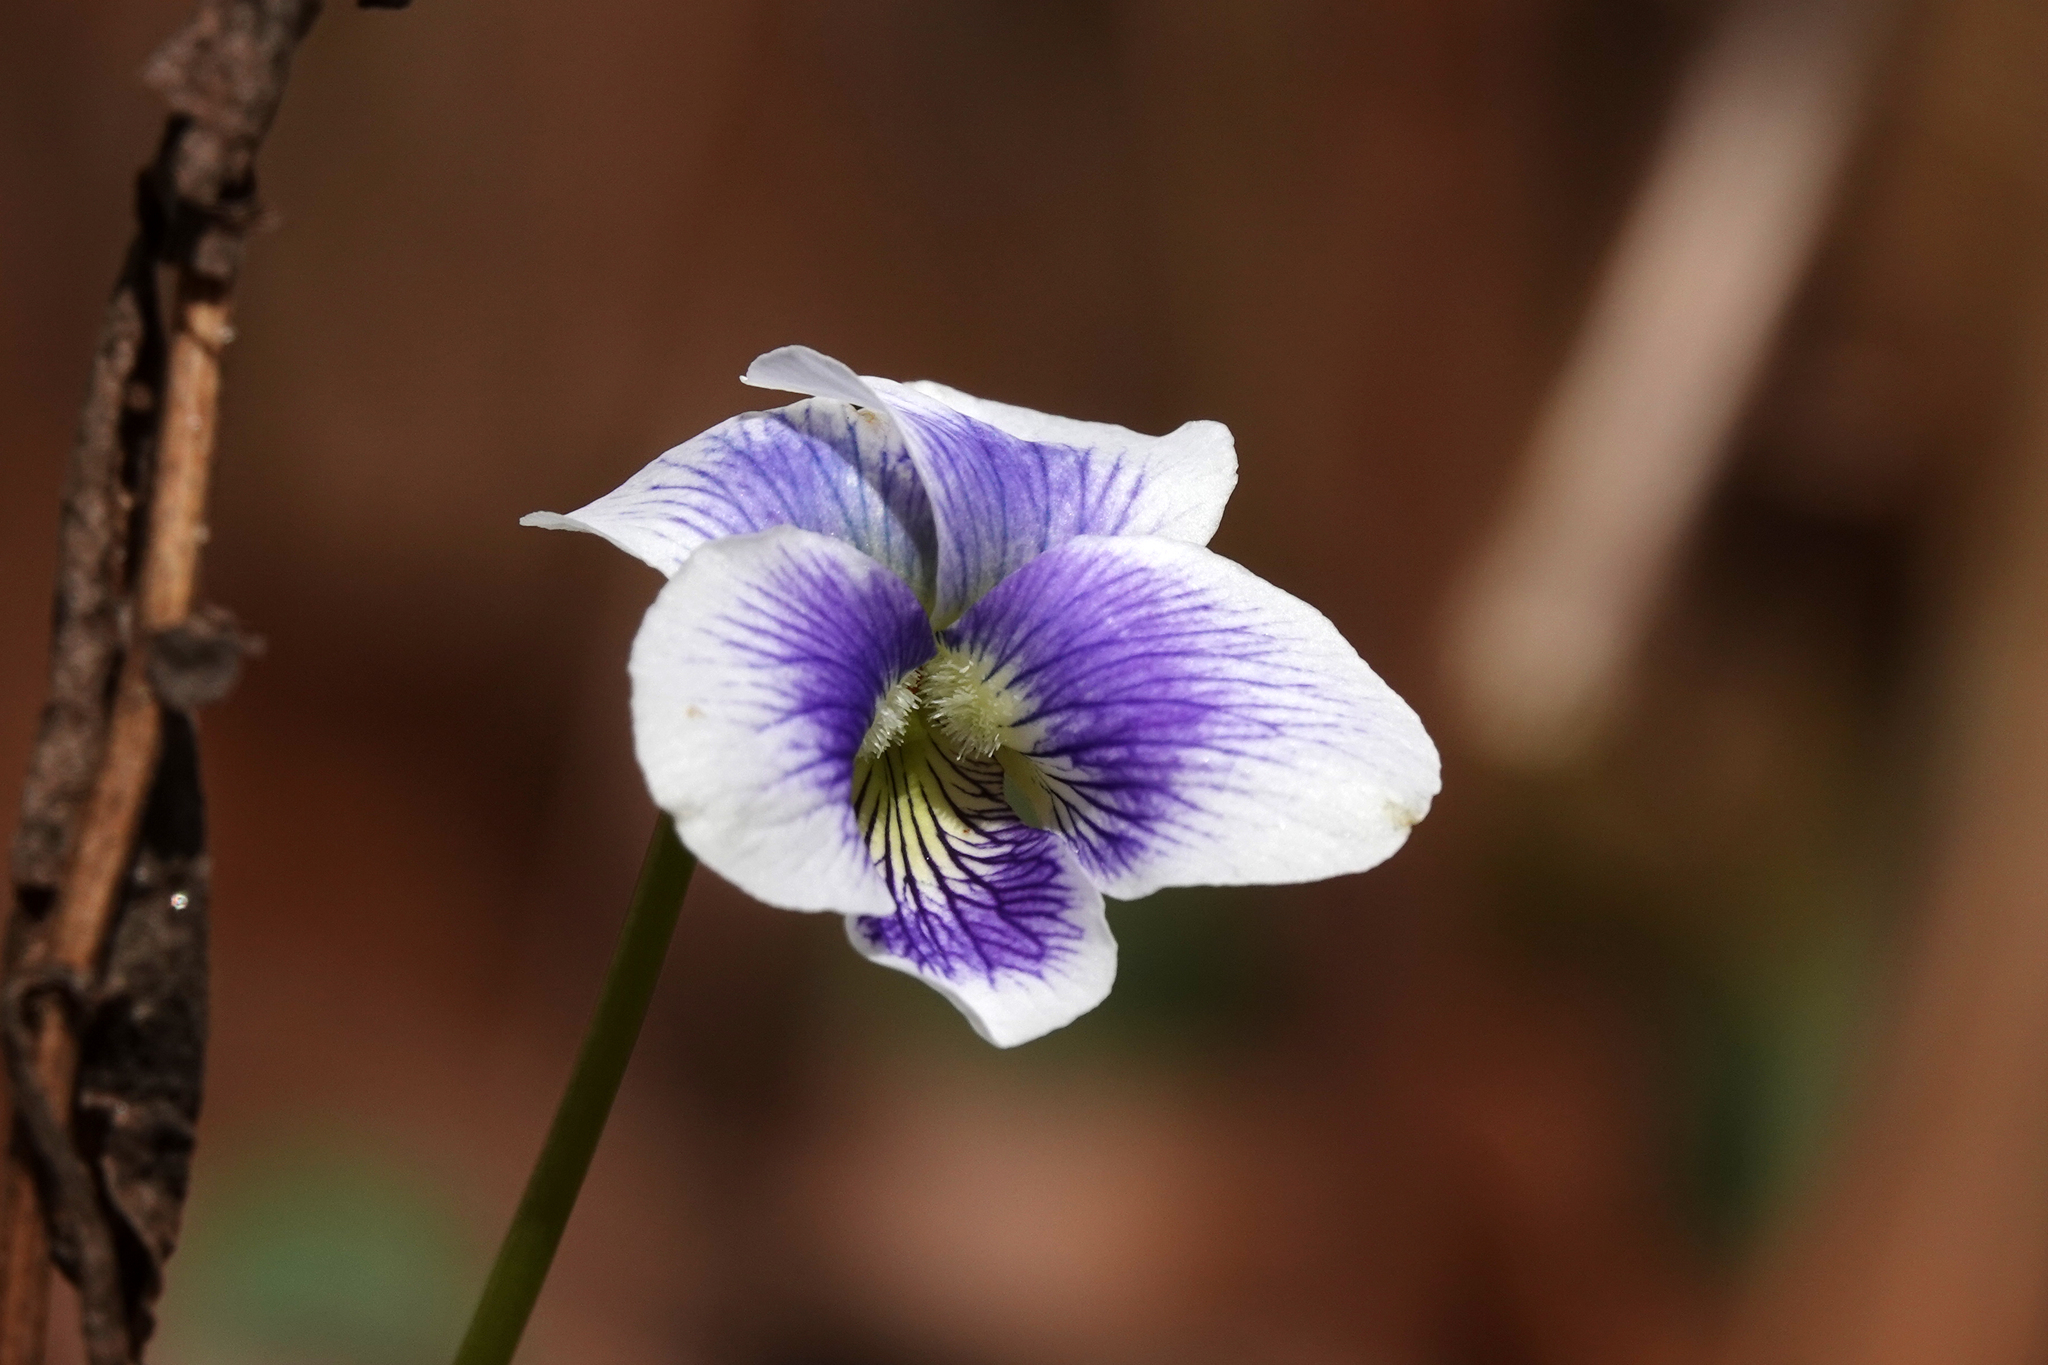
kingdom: Plantae
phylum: Tracheophyta
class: Magnoliopsida
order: Malpighiales
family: Violaceae
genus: Viola
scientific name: Viola sororia
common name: Dooryard violet
